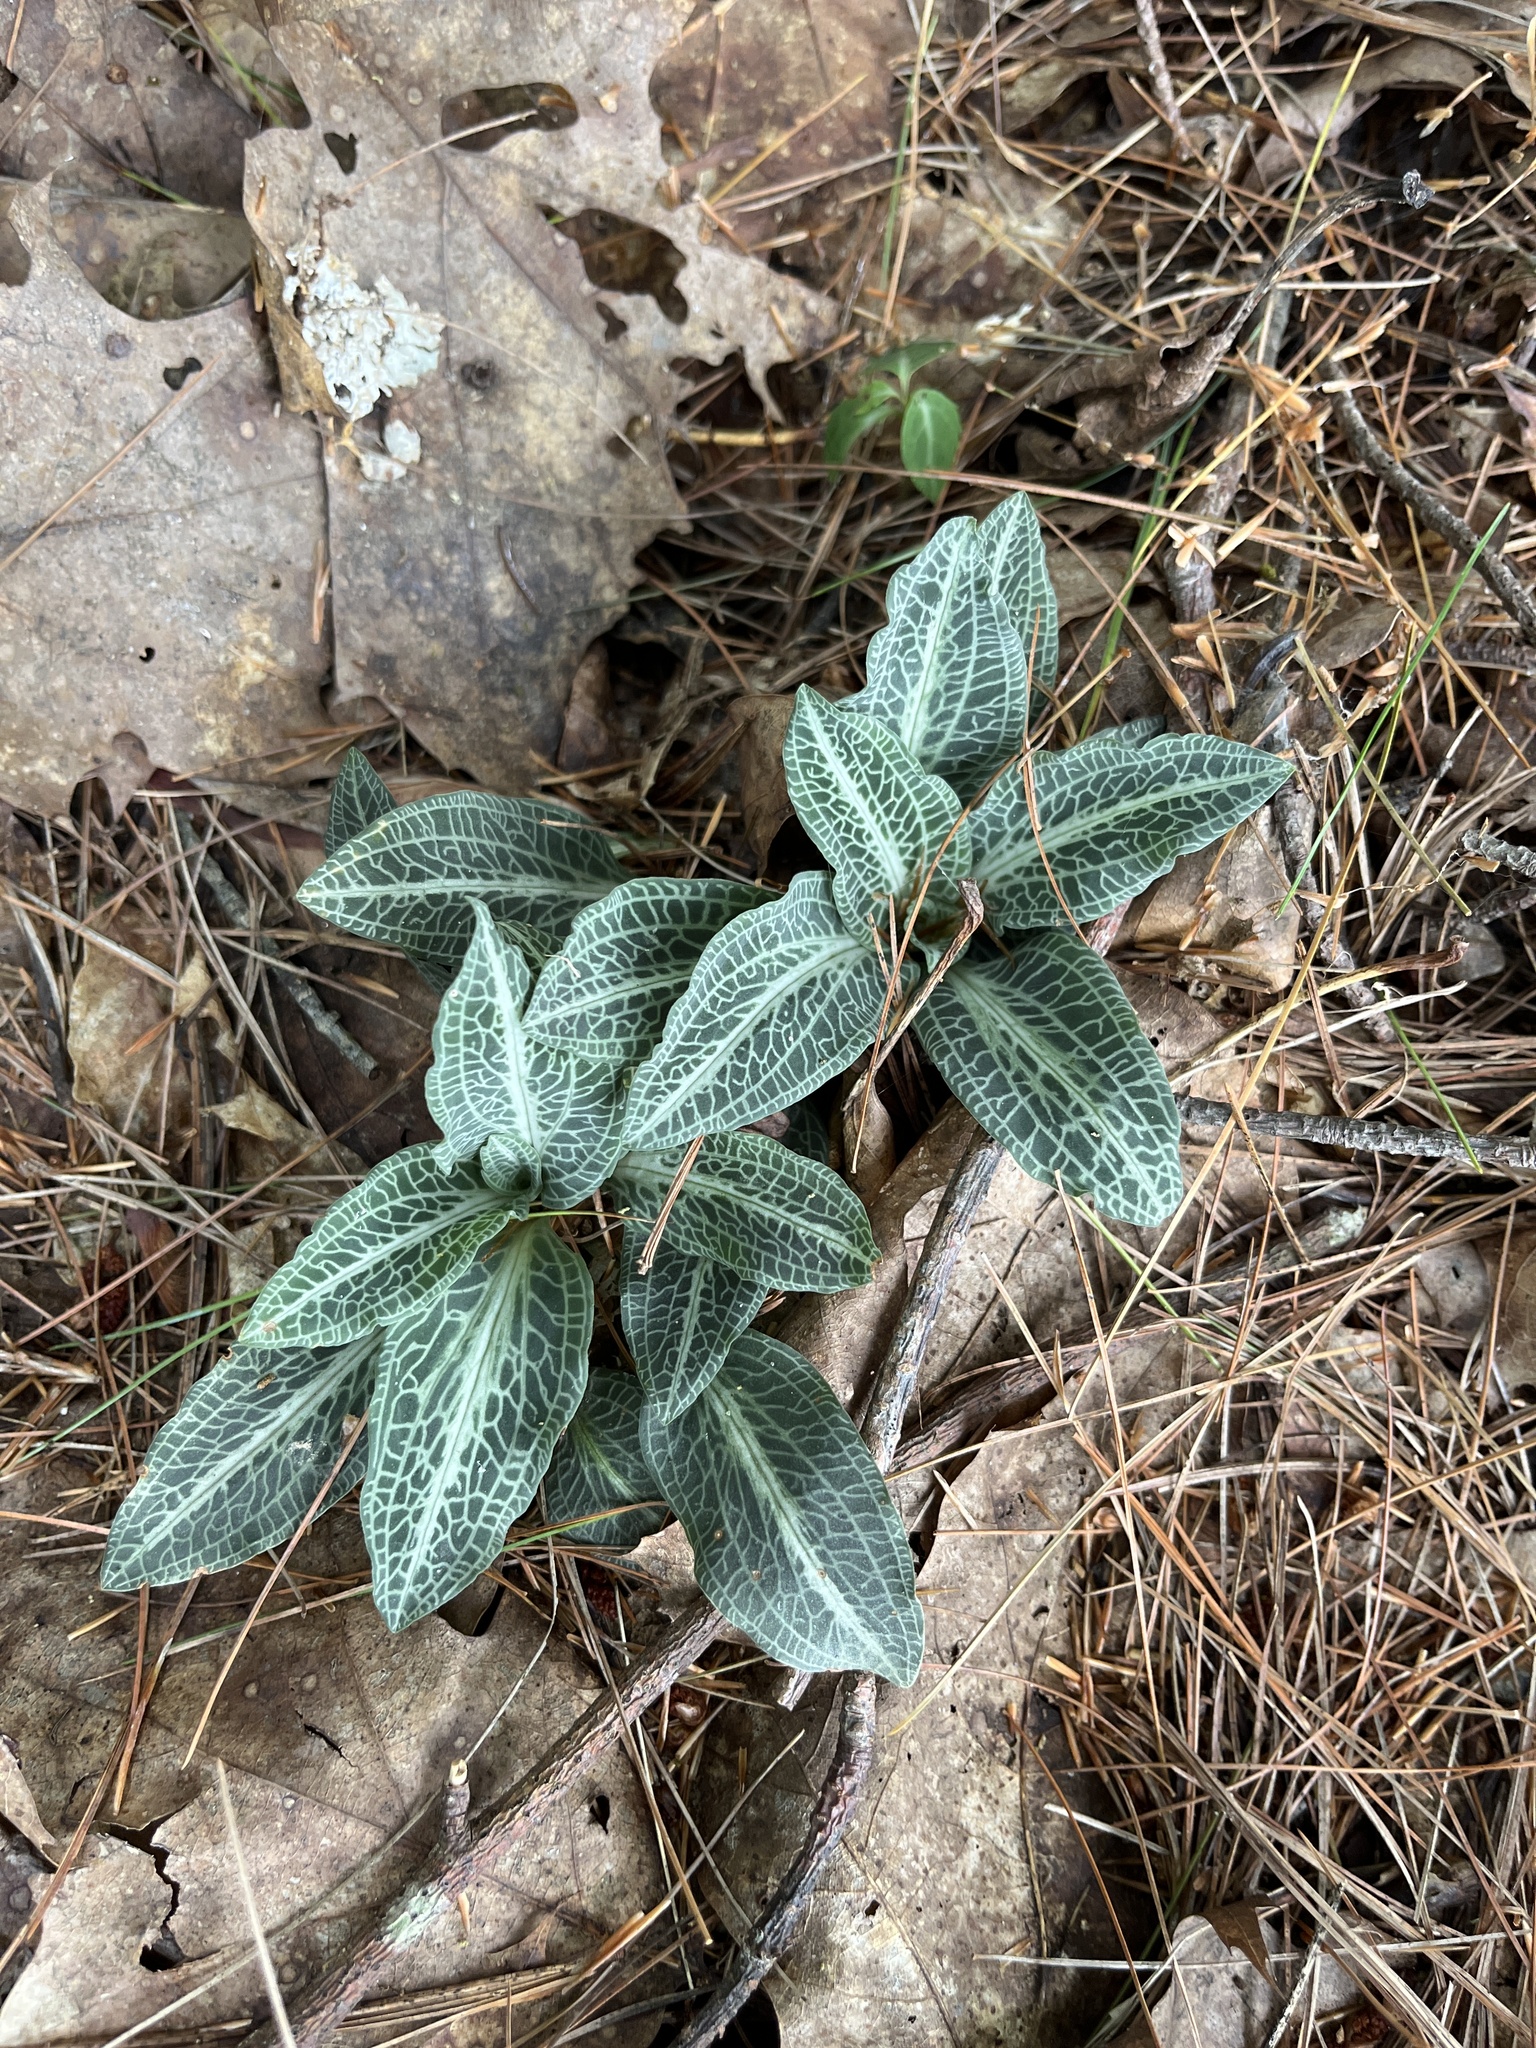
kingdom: Plantae
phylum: Tracheophyta
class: Liliopsida
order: Asparagales
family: Orchidaceae
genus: Goodyera
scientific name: Goodyera pubescens
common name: Downy rattlesnake-plantain
